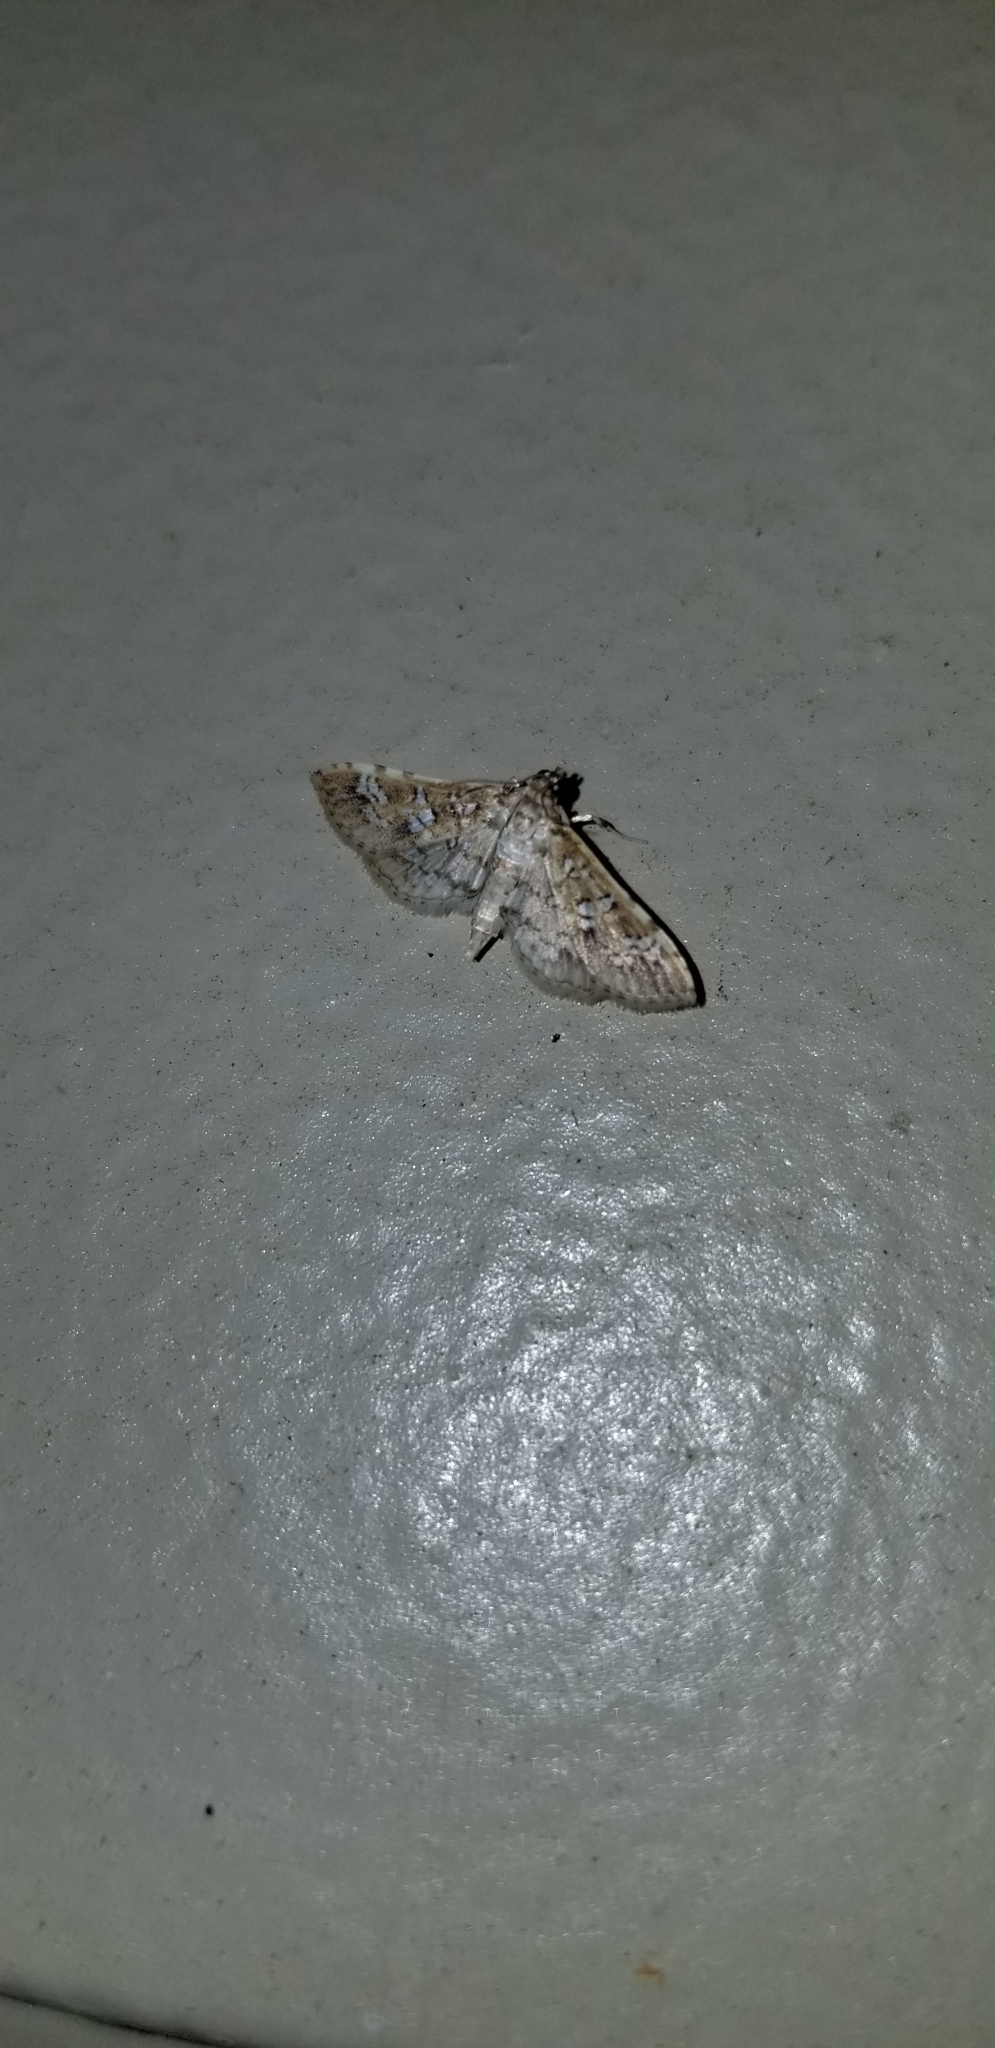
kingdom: Animalia
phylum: Arthropoda
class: Insecta
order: Lepidoptera
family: Crambidae
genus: Samea
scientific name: Samea multiplicalis
